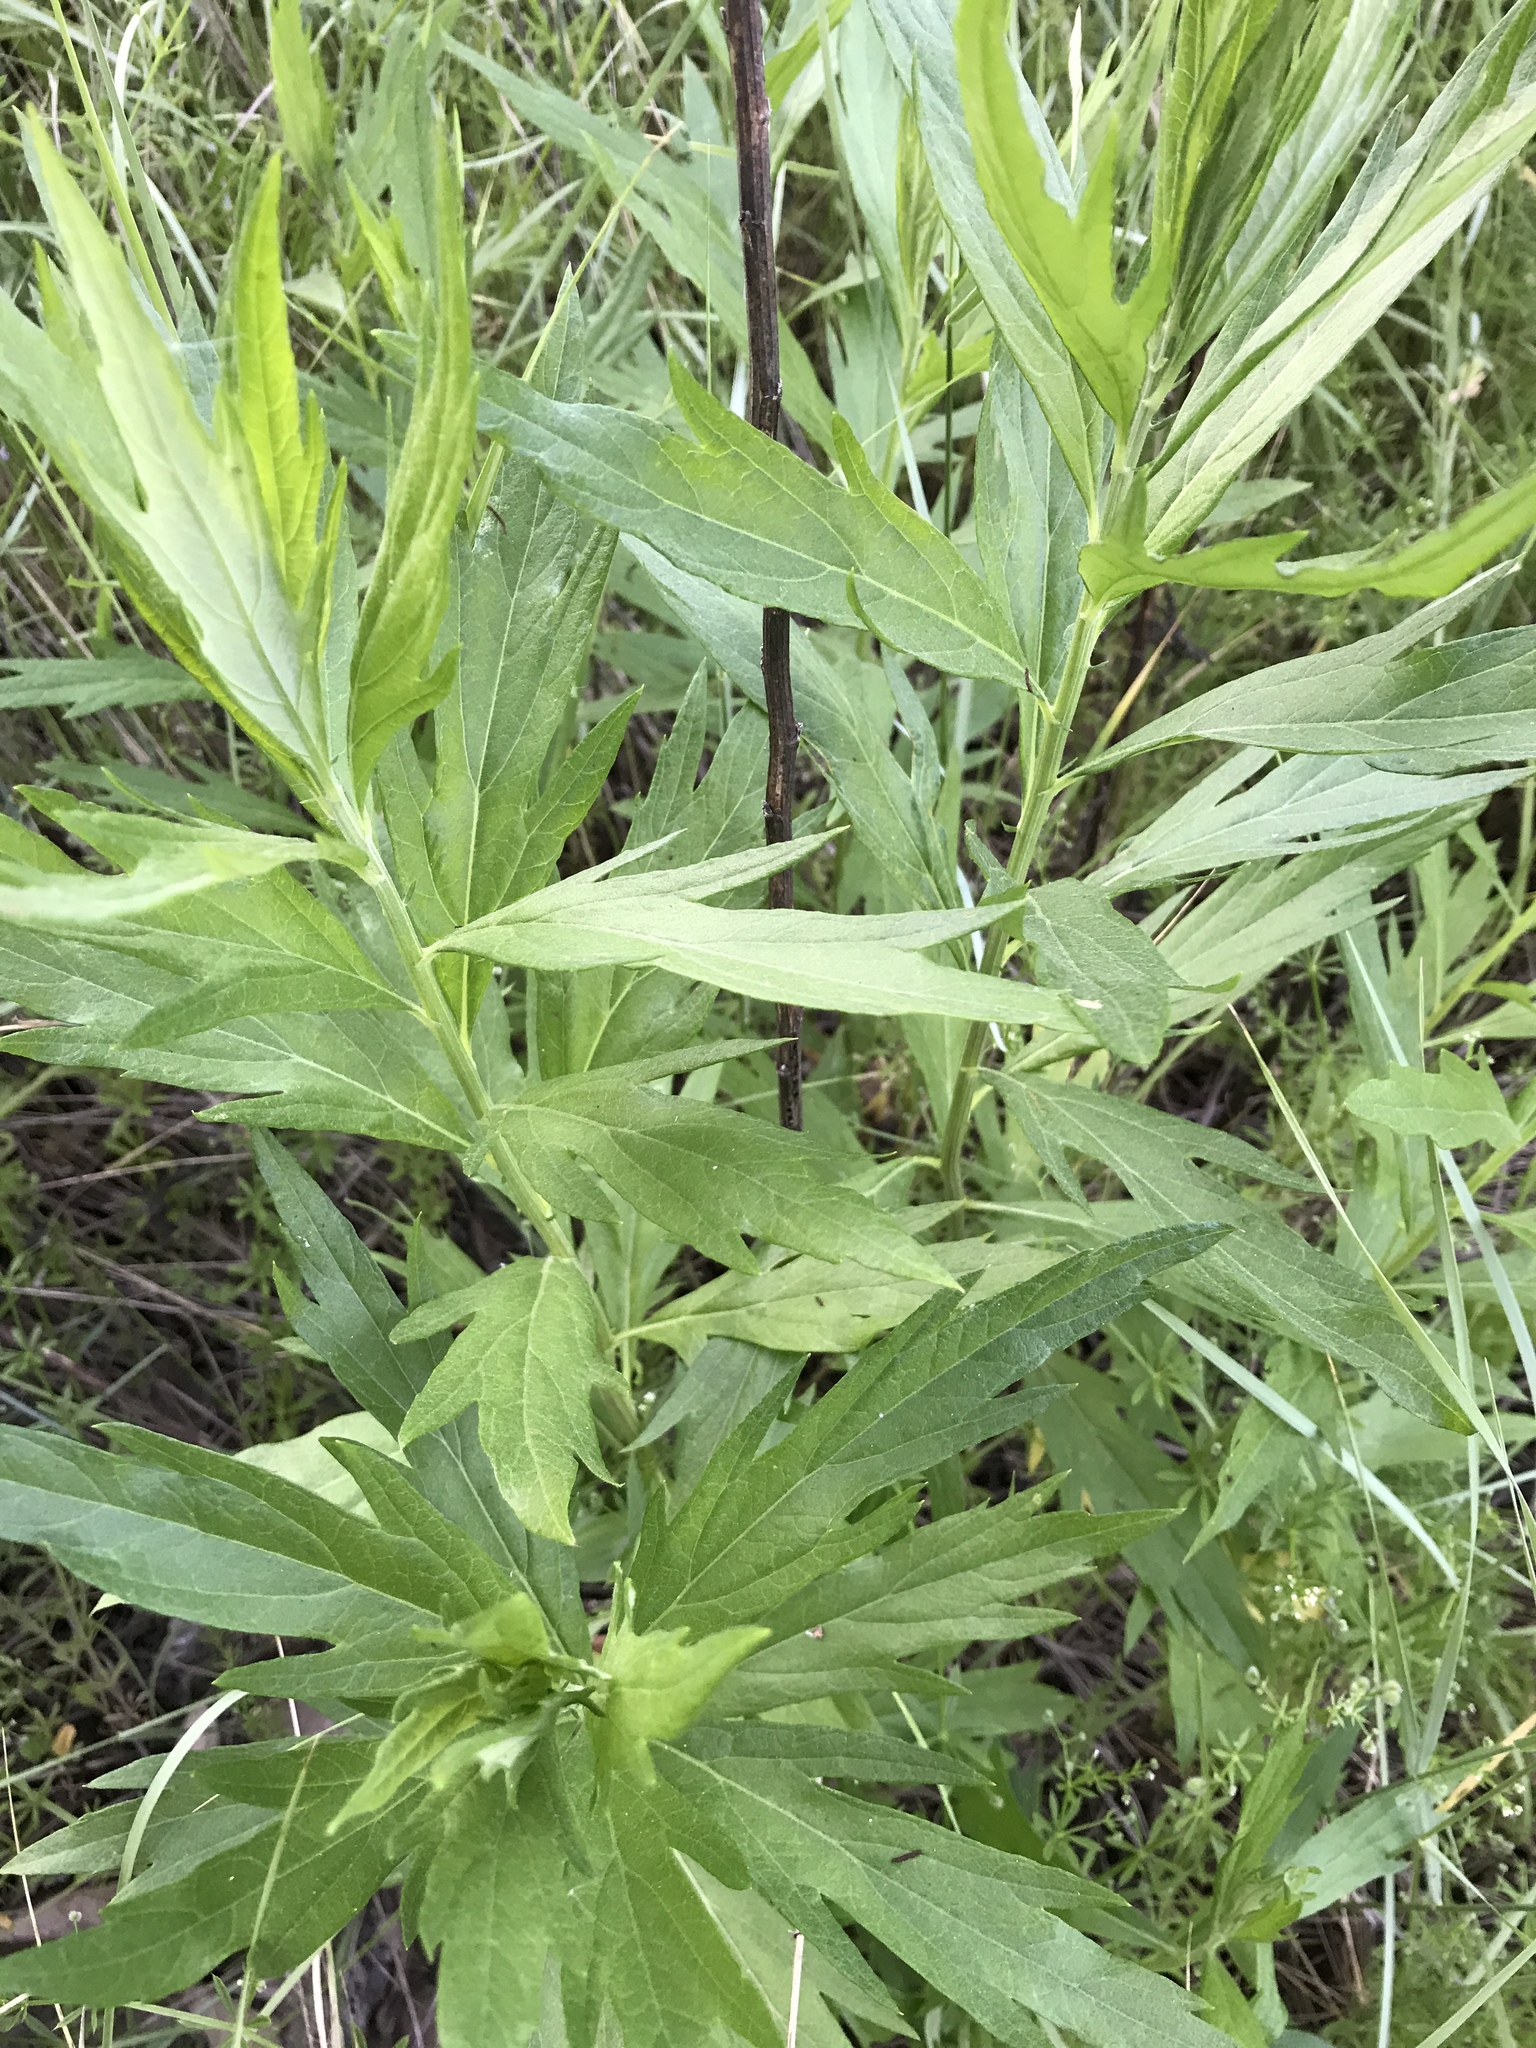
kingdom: Plantae
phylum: Tracheophyta
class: Magnoliopsida
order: Asterales
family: Asteraceae
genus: Artemisia
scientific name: Artemisia douglasiana
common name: Northwest mugwort
